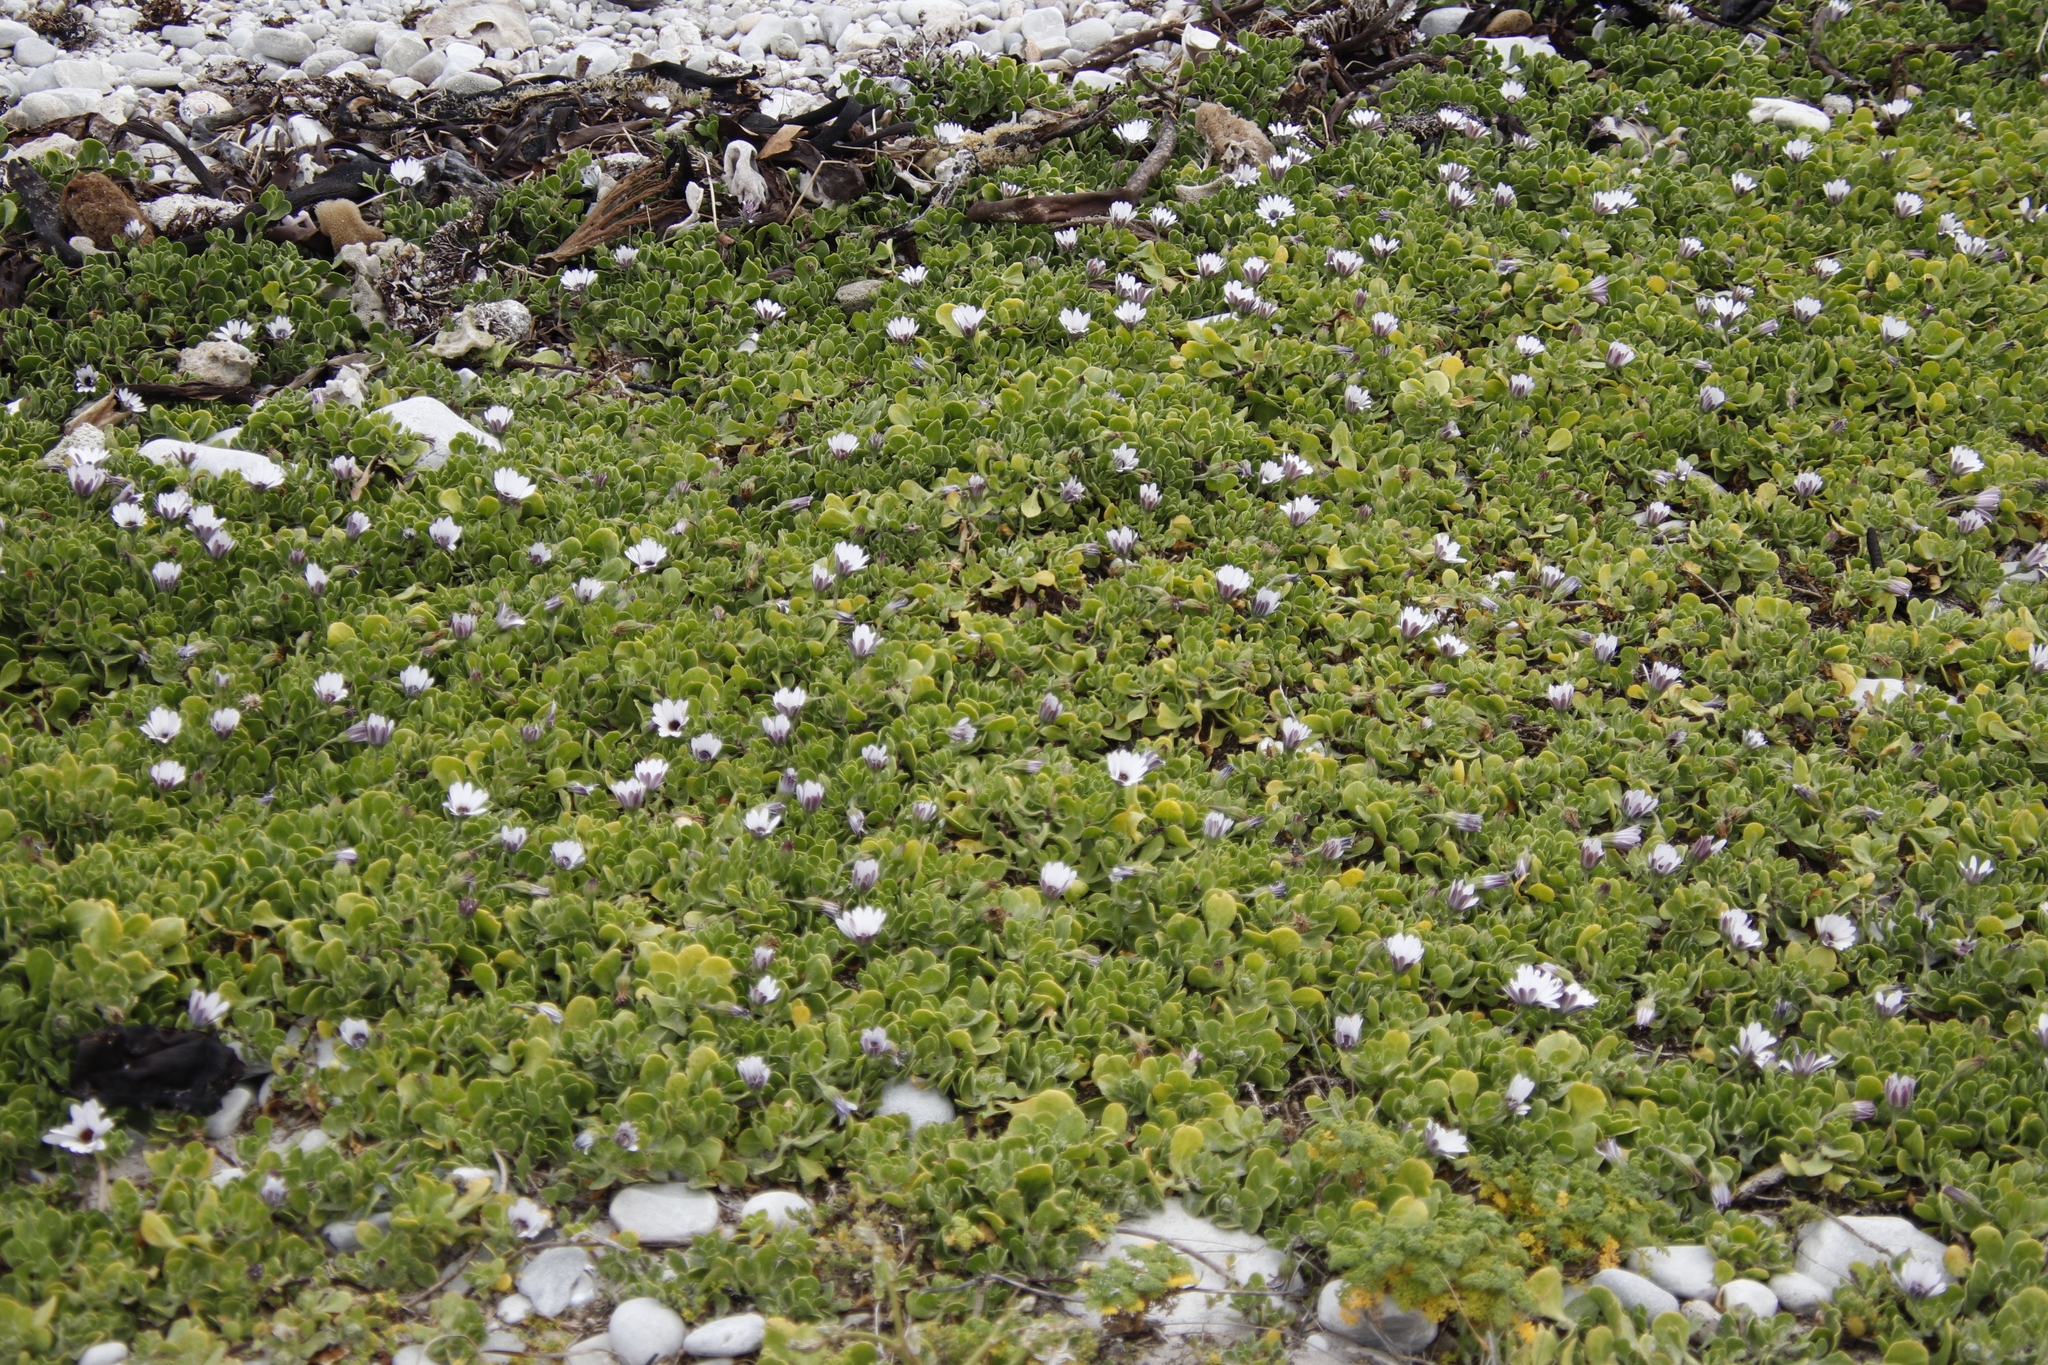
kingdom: Plantae
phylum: Tracheophyta
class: Magnoliopsida
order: Asterales
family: Asteraceae
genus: Dimorphotheca
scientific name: Dimorphotheca fruticosa
